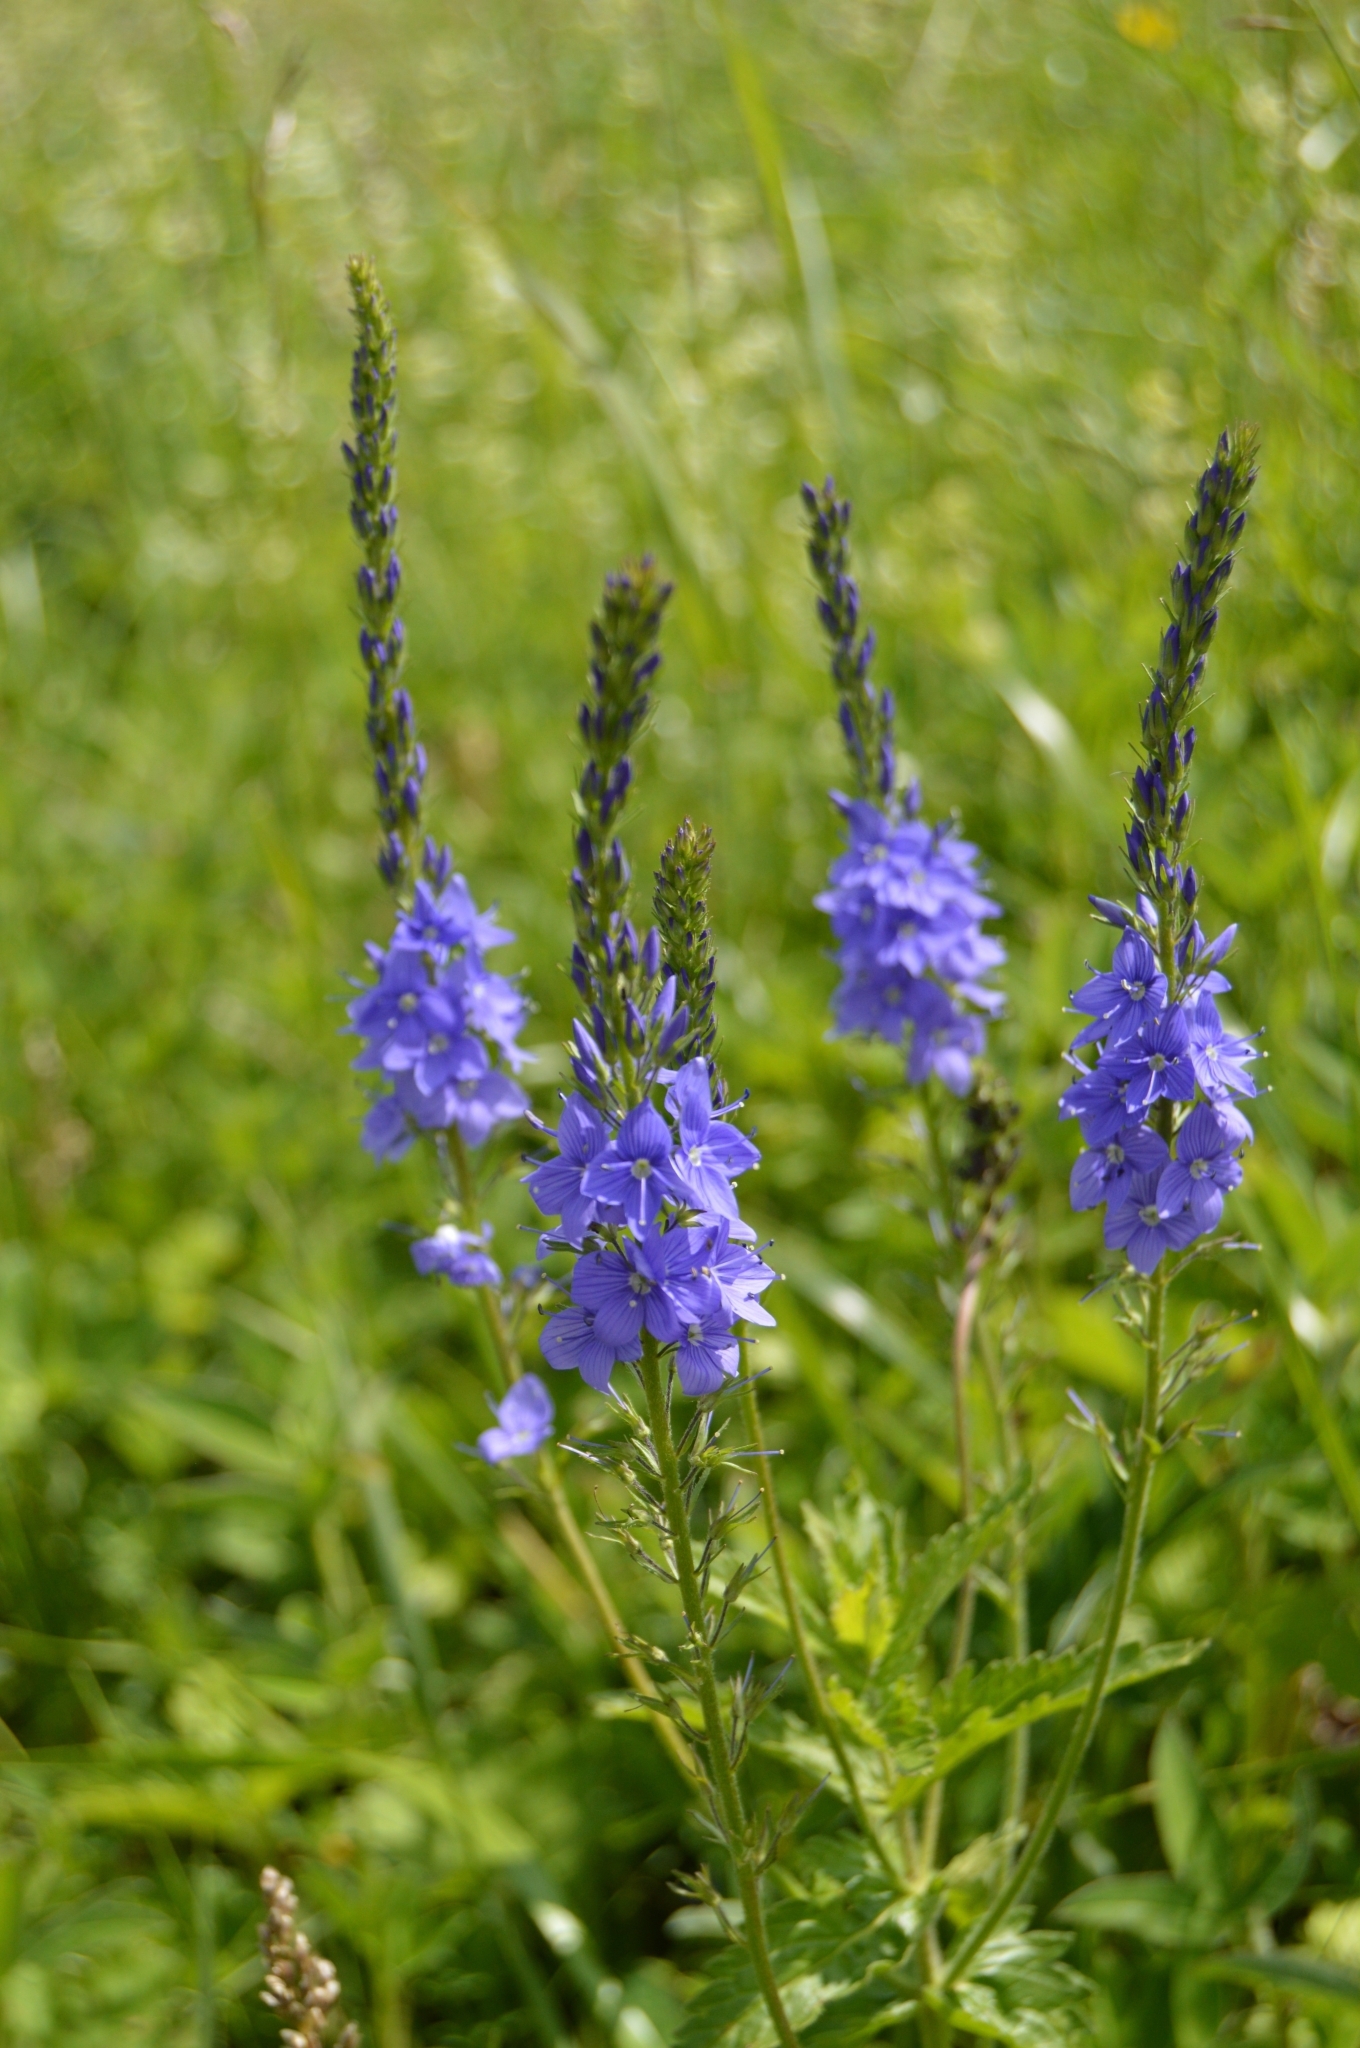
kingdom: Plantae
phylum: Tracheophyta
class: Magnoliopsida
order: Lamiales
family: Plantaginaceae
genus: Veronica
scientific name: Veronica teucrium
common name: Large speedwell
